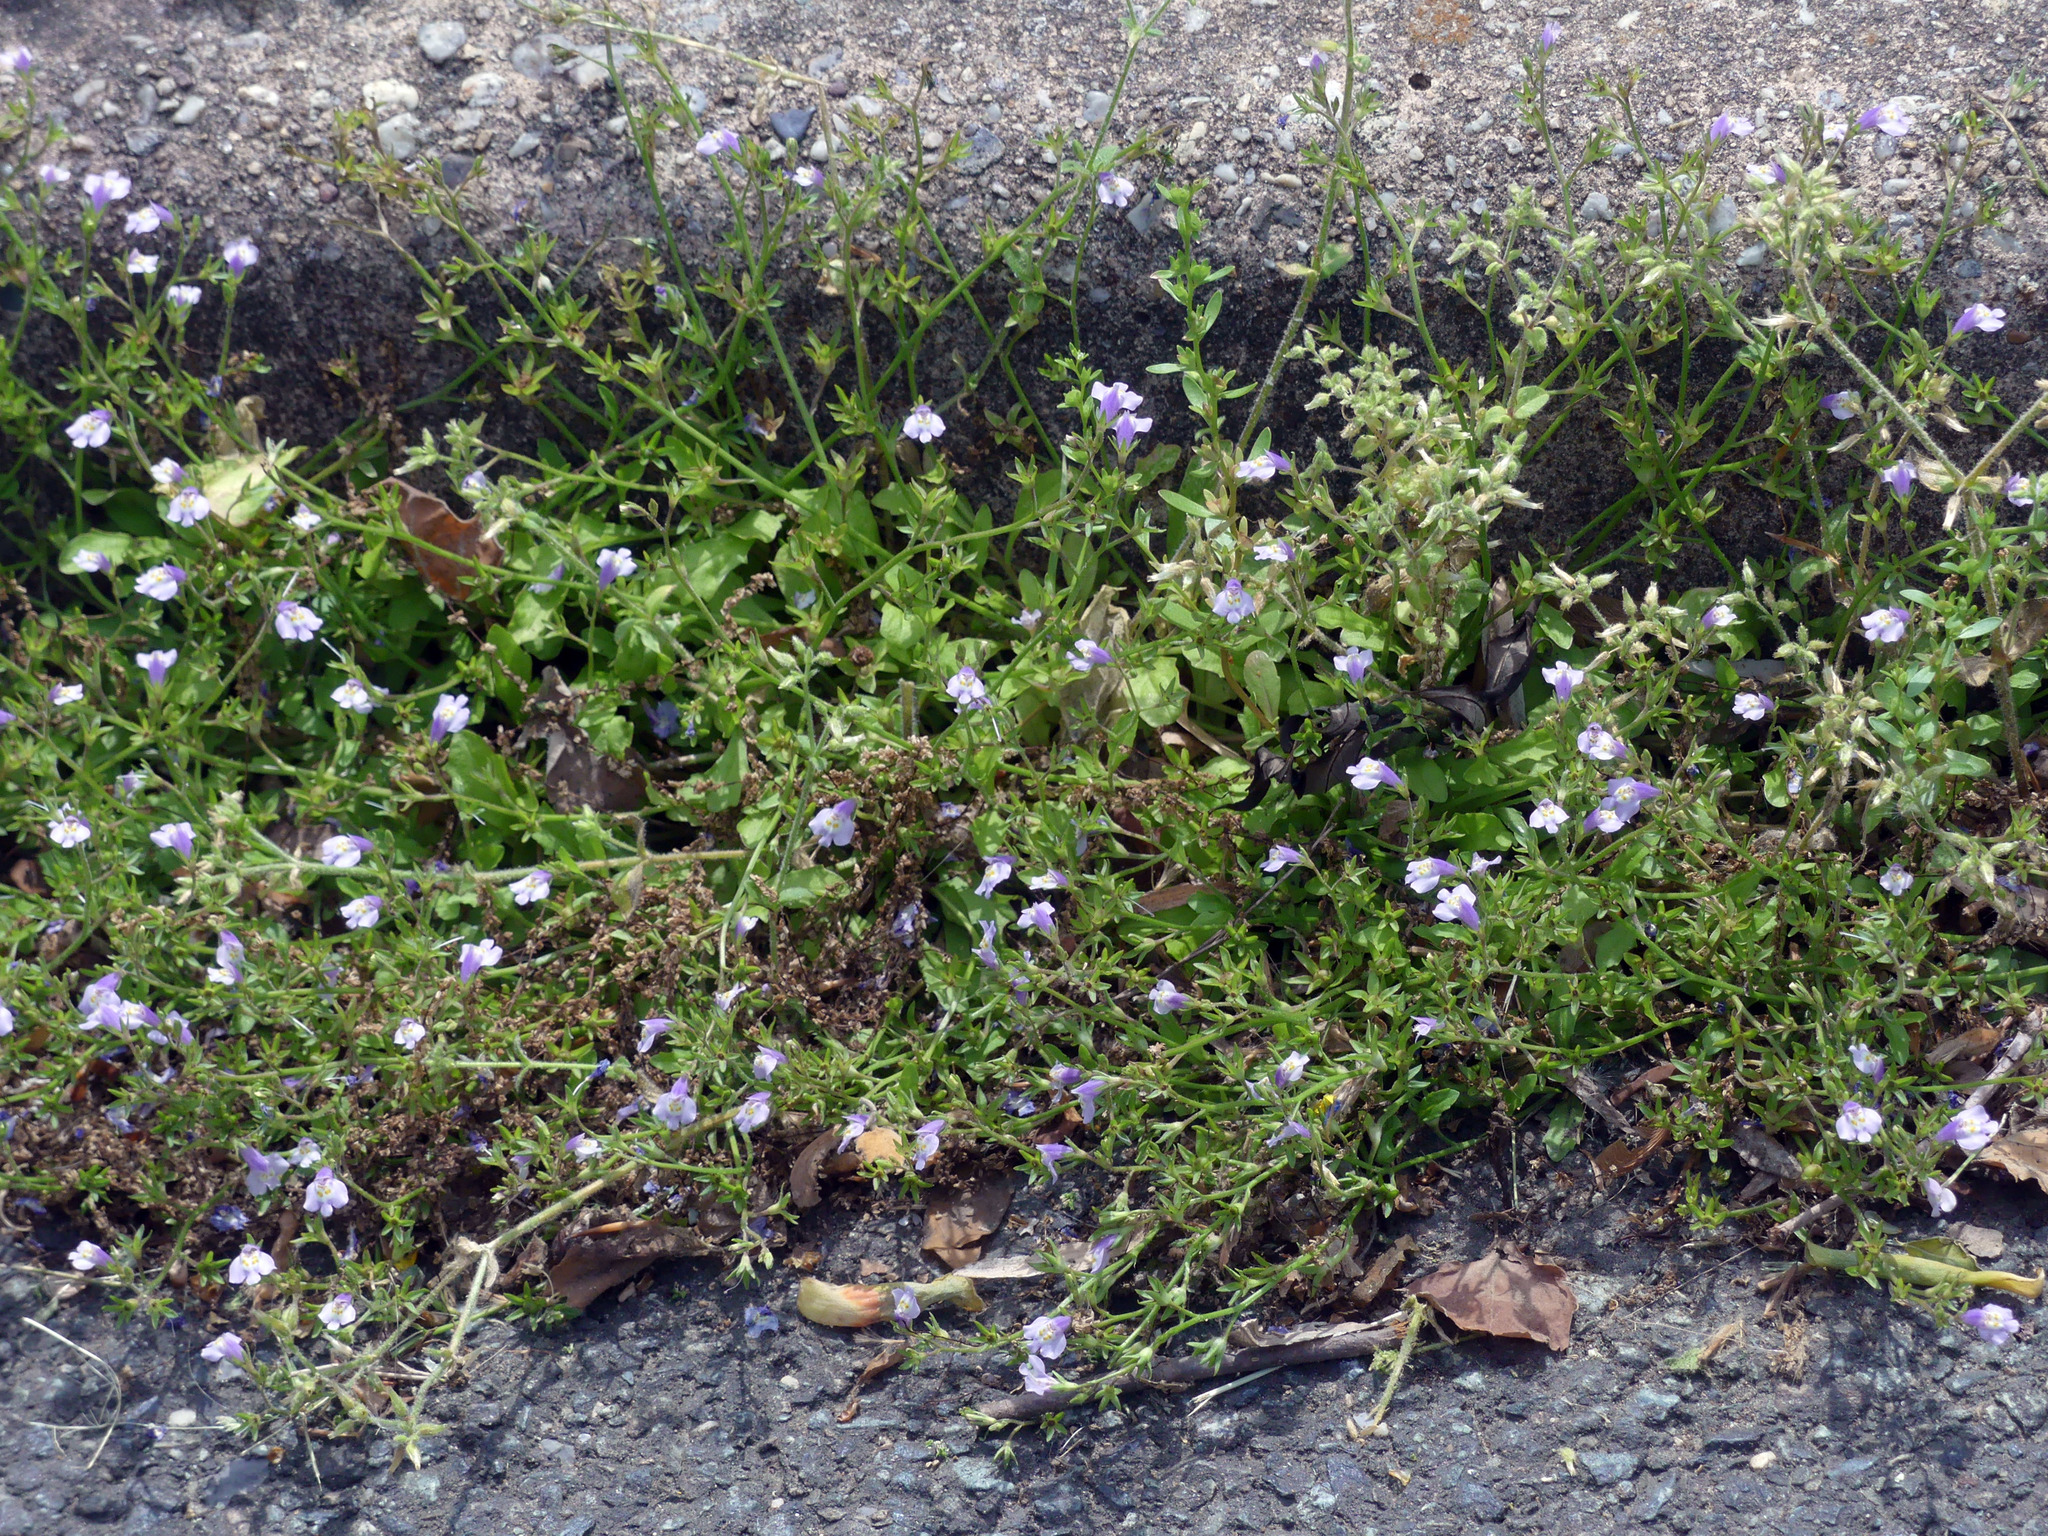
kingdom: Plantae
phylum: Tracheophyta
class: Magnoliopsida
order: Lamiales
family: Mazaceae
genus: Mazus
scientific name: Mazus pumilus
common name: Japanese mazus
